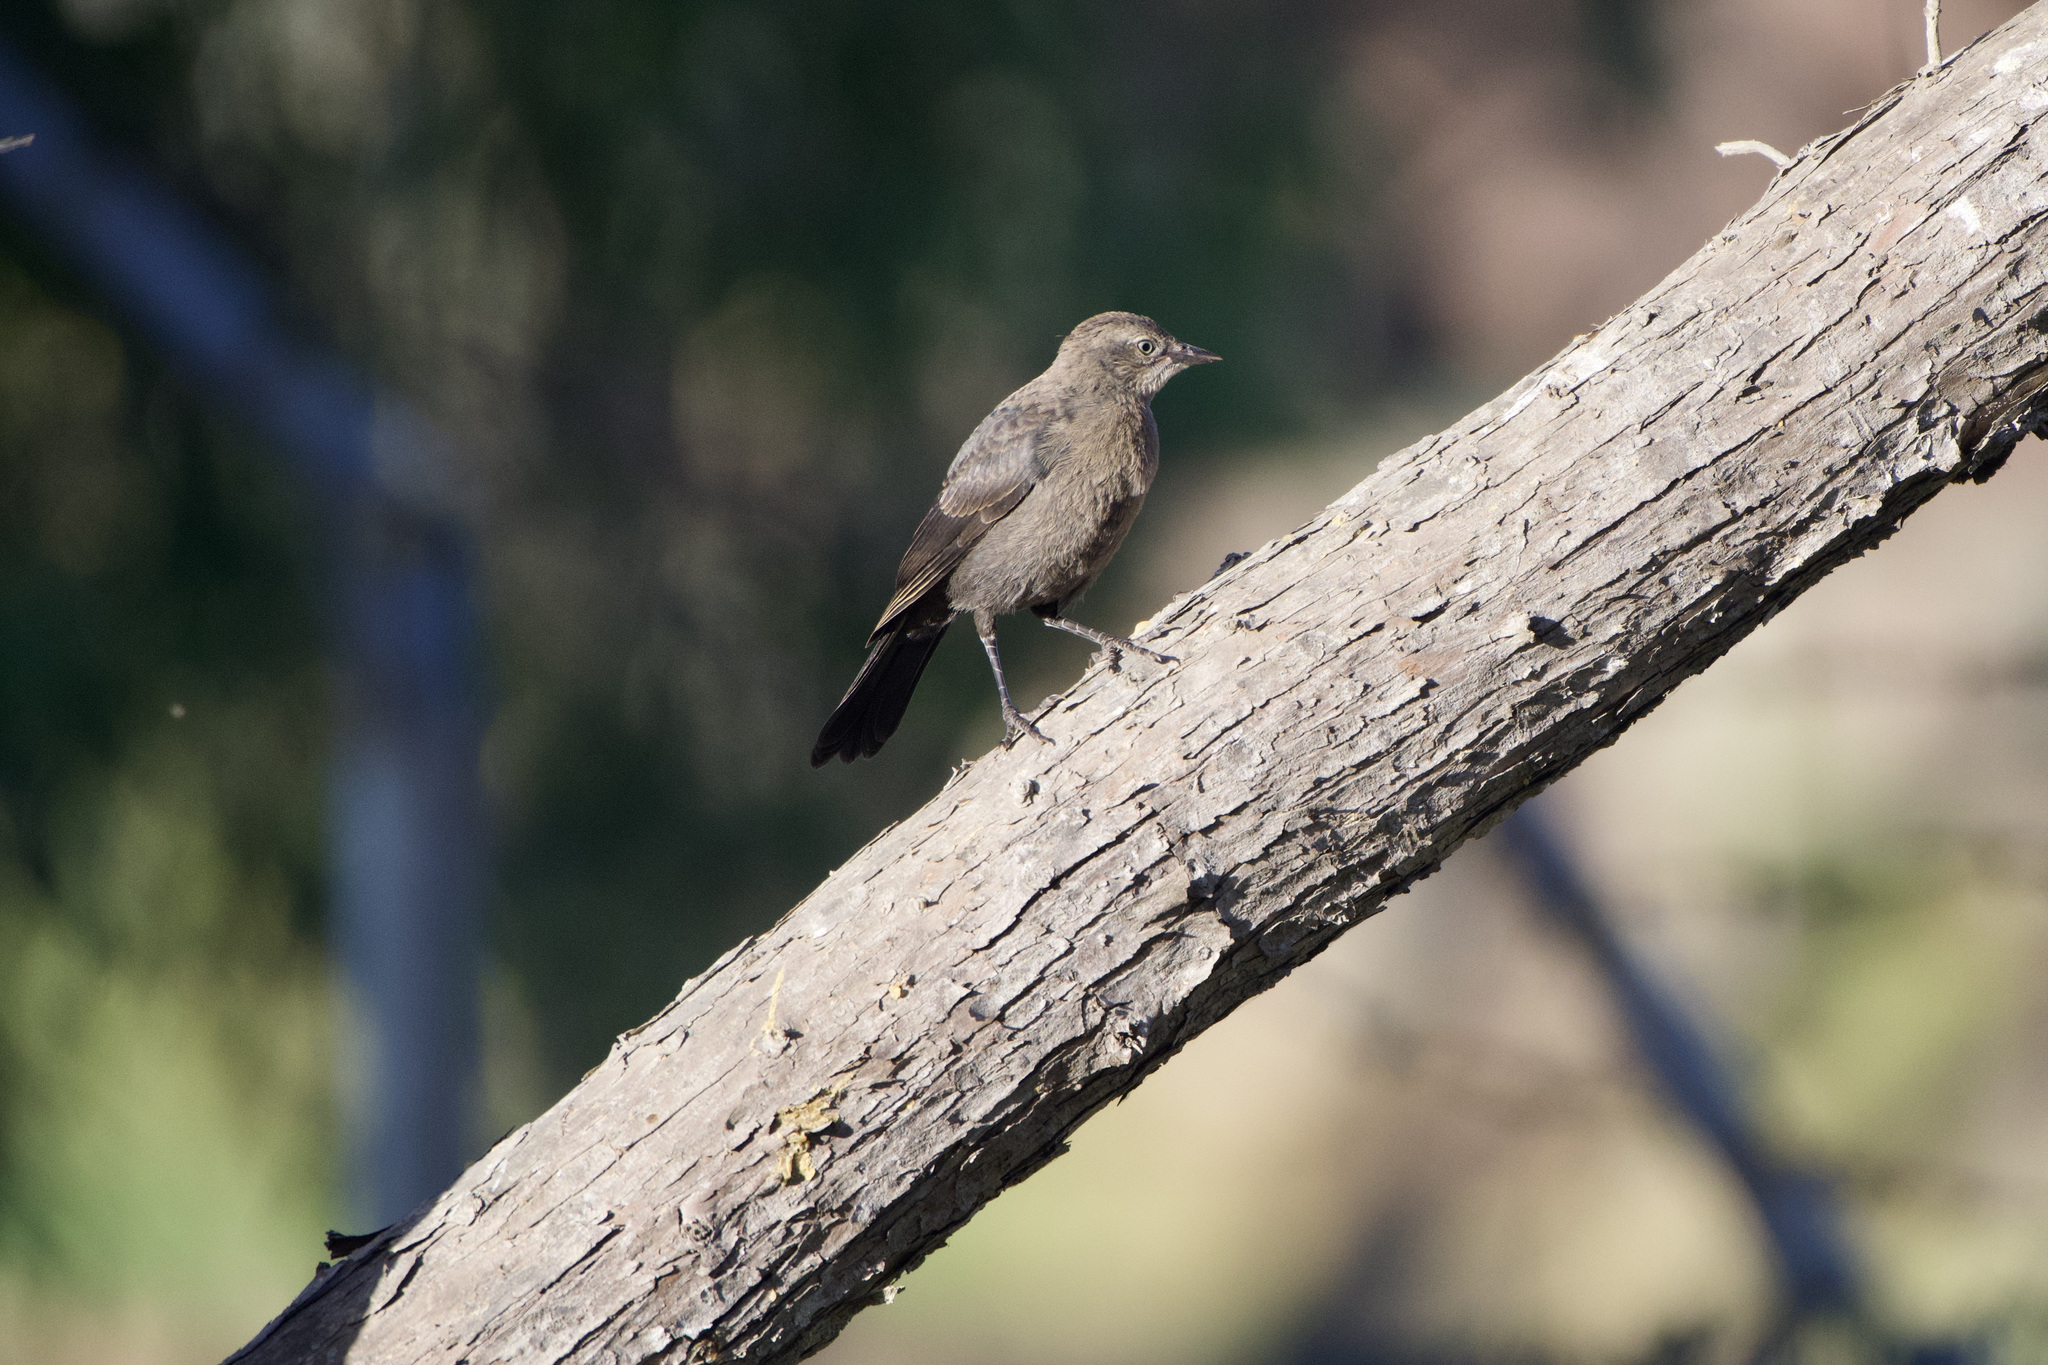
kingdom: Animalia
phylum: Chordata
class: Aves
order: Passeriformes
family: Icteridae
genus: Euphagus
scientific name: Euphagus cyanocephalus
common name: Brewer's blackbird
